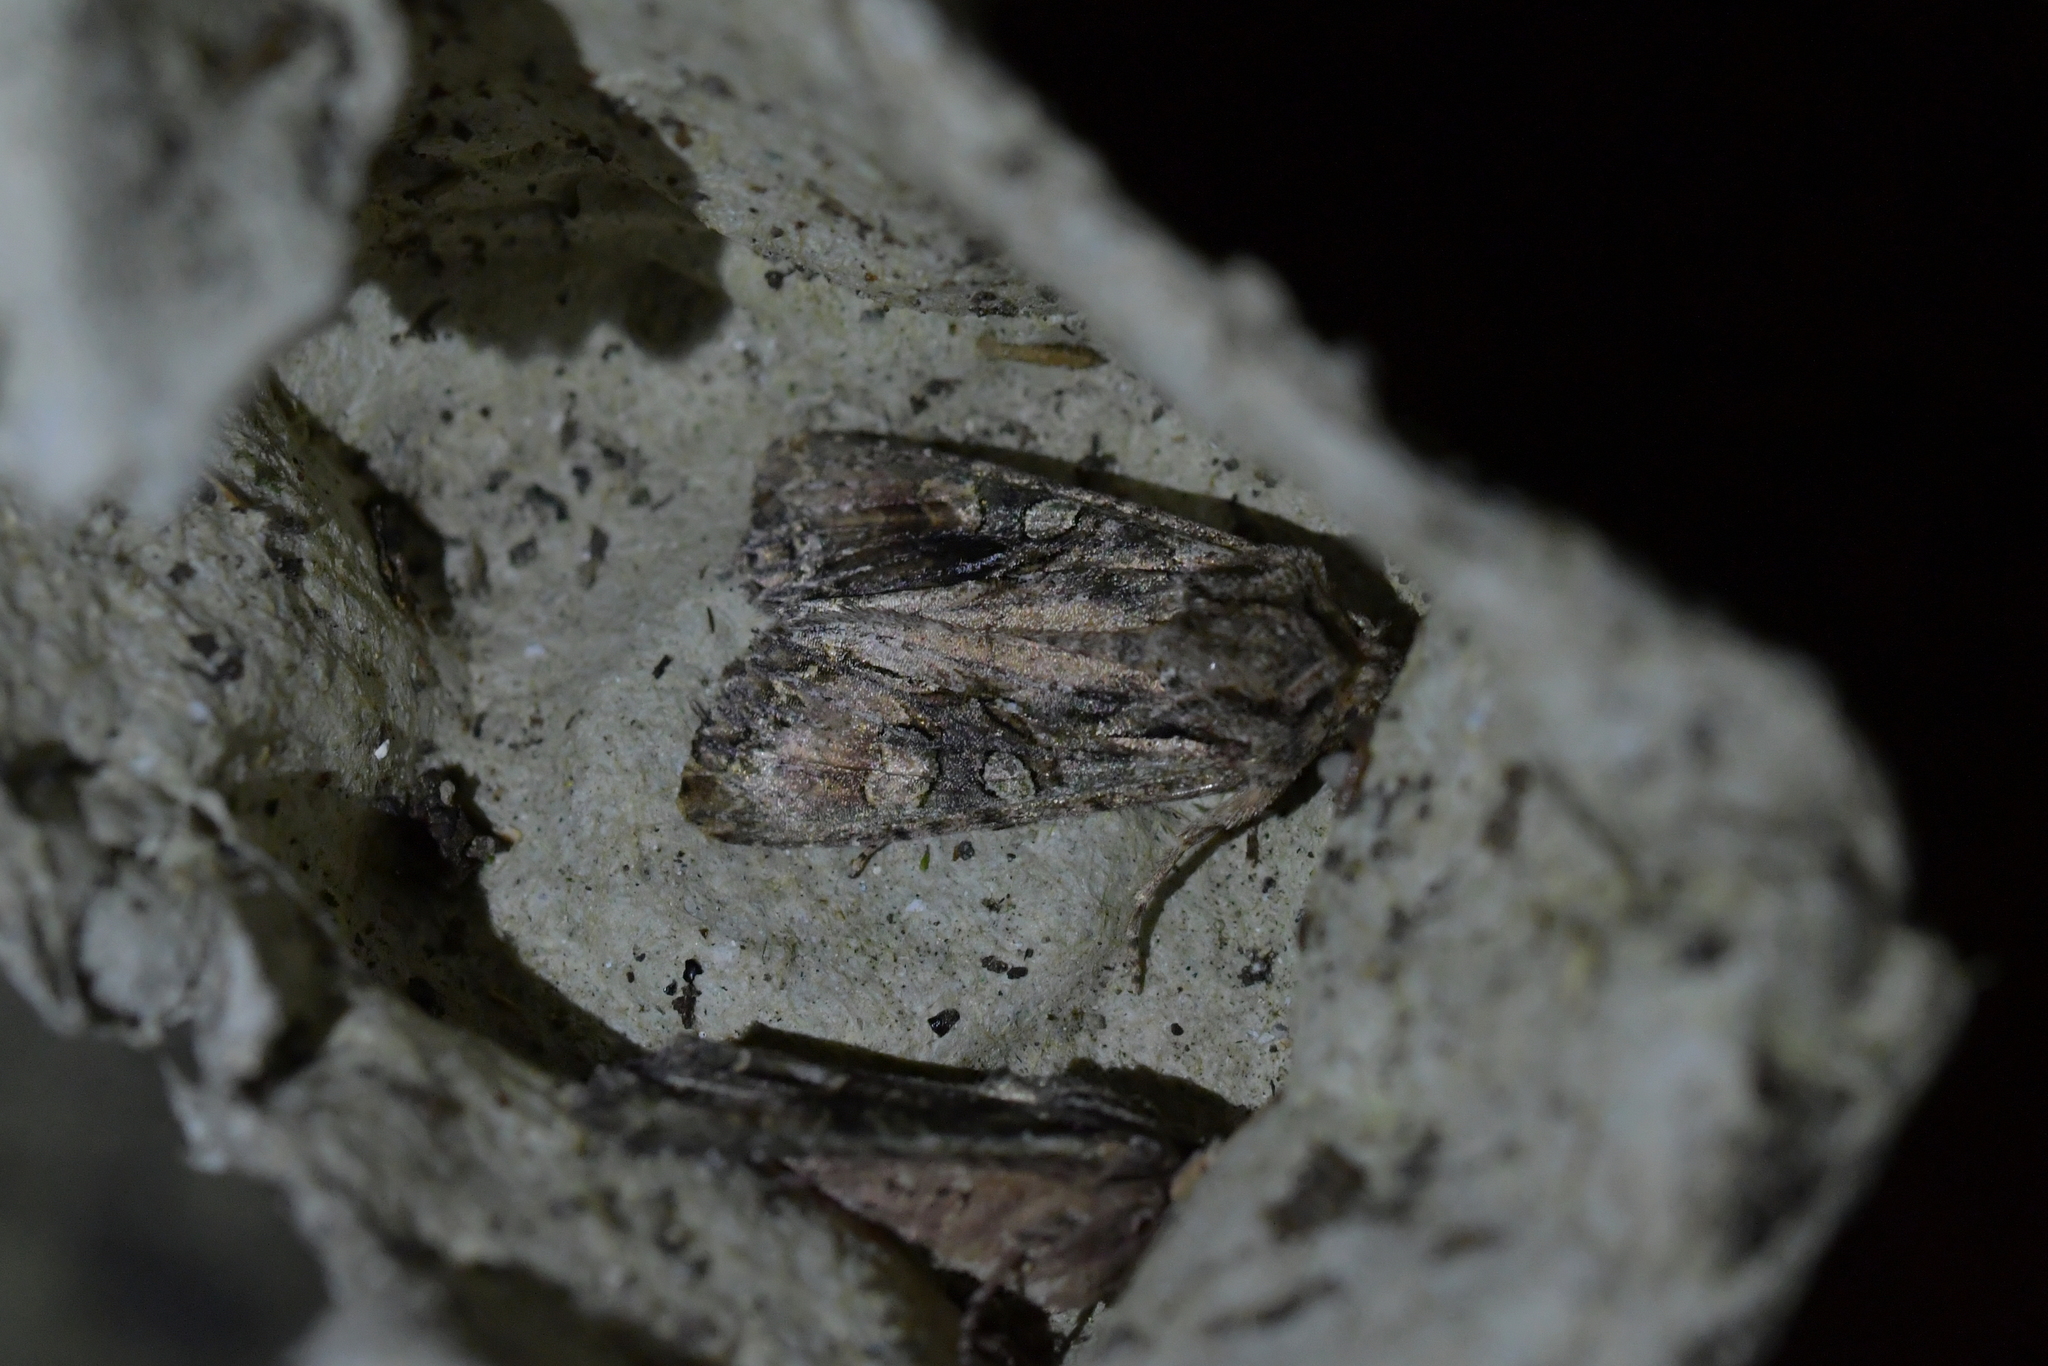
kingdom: Animalia
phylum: Arthropoda
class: Insecta
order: Lepidoptera
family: Noctuidae
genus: Ichneutica
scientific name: Ichneutica mutans
